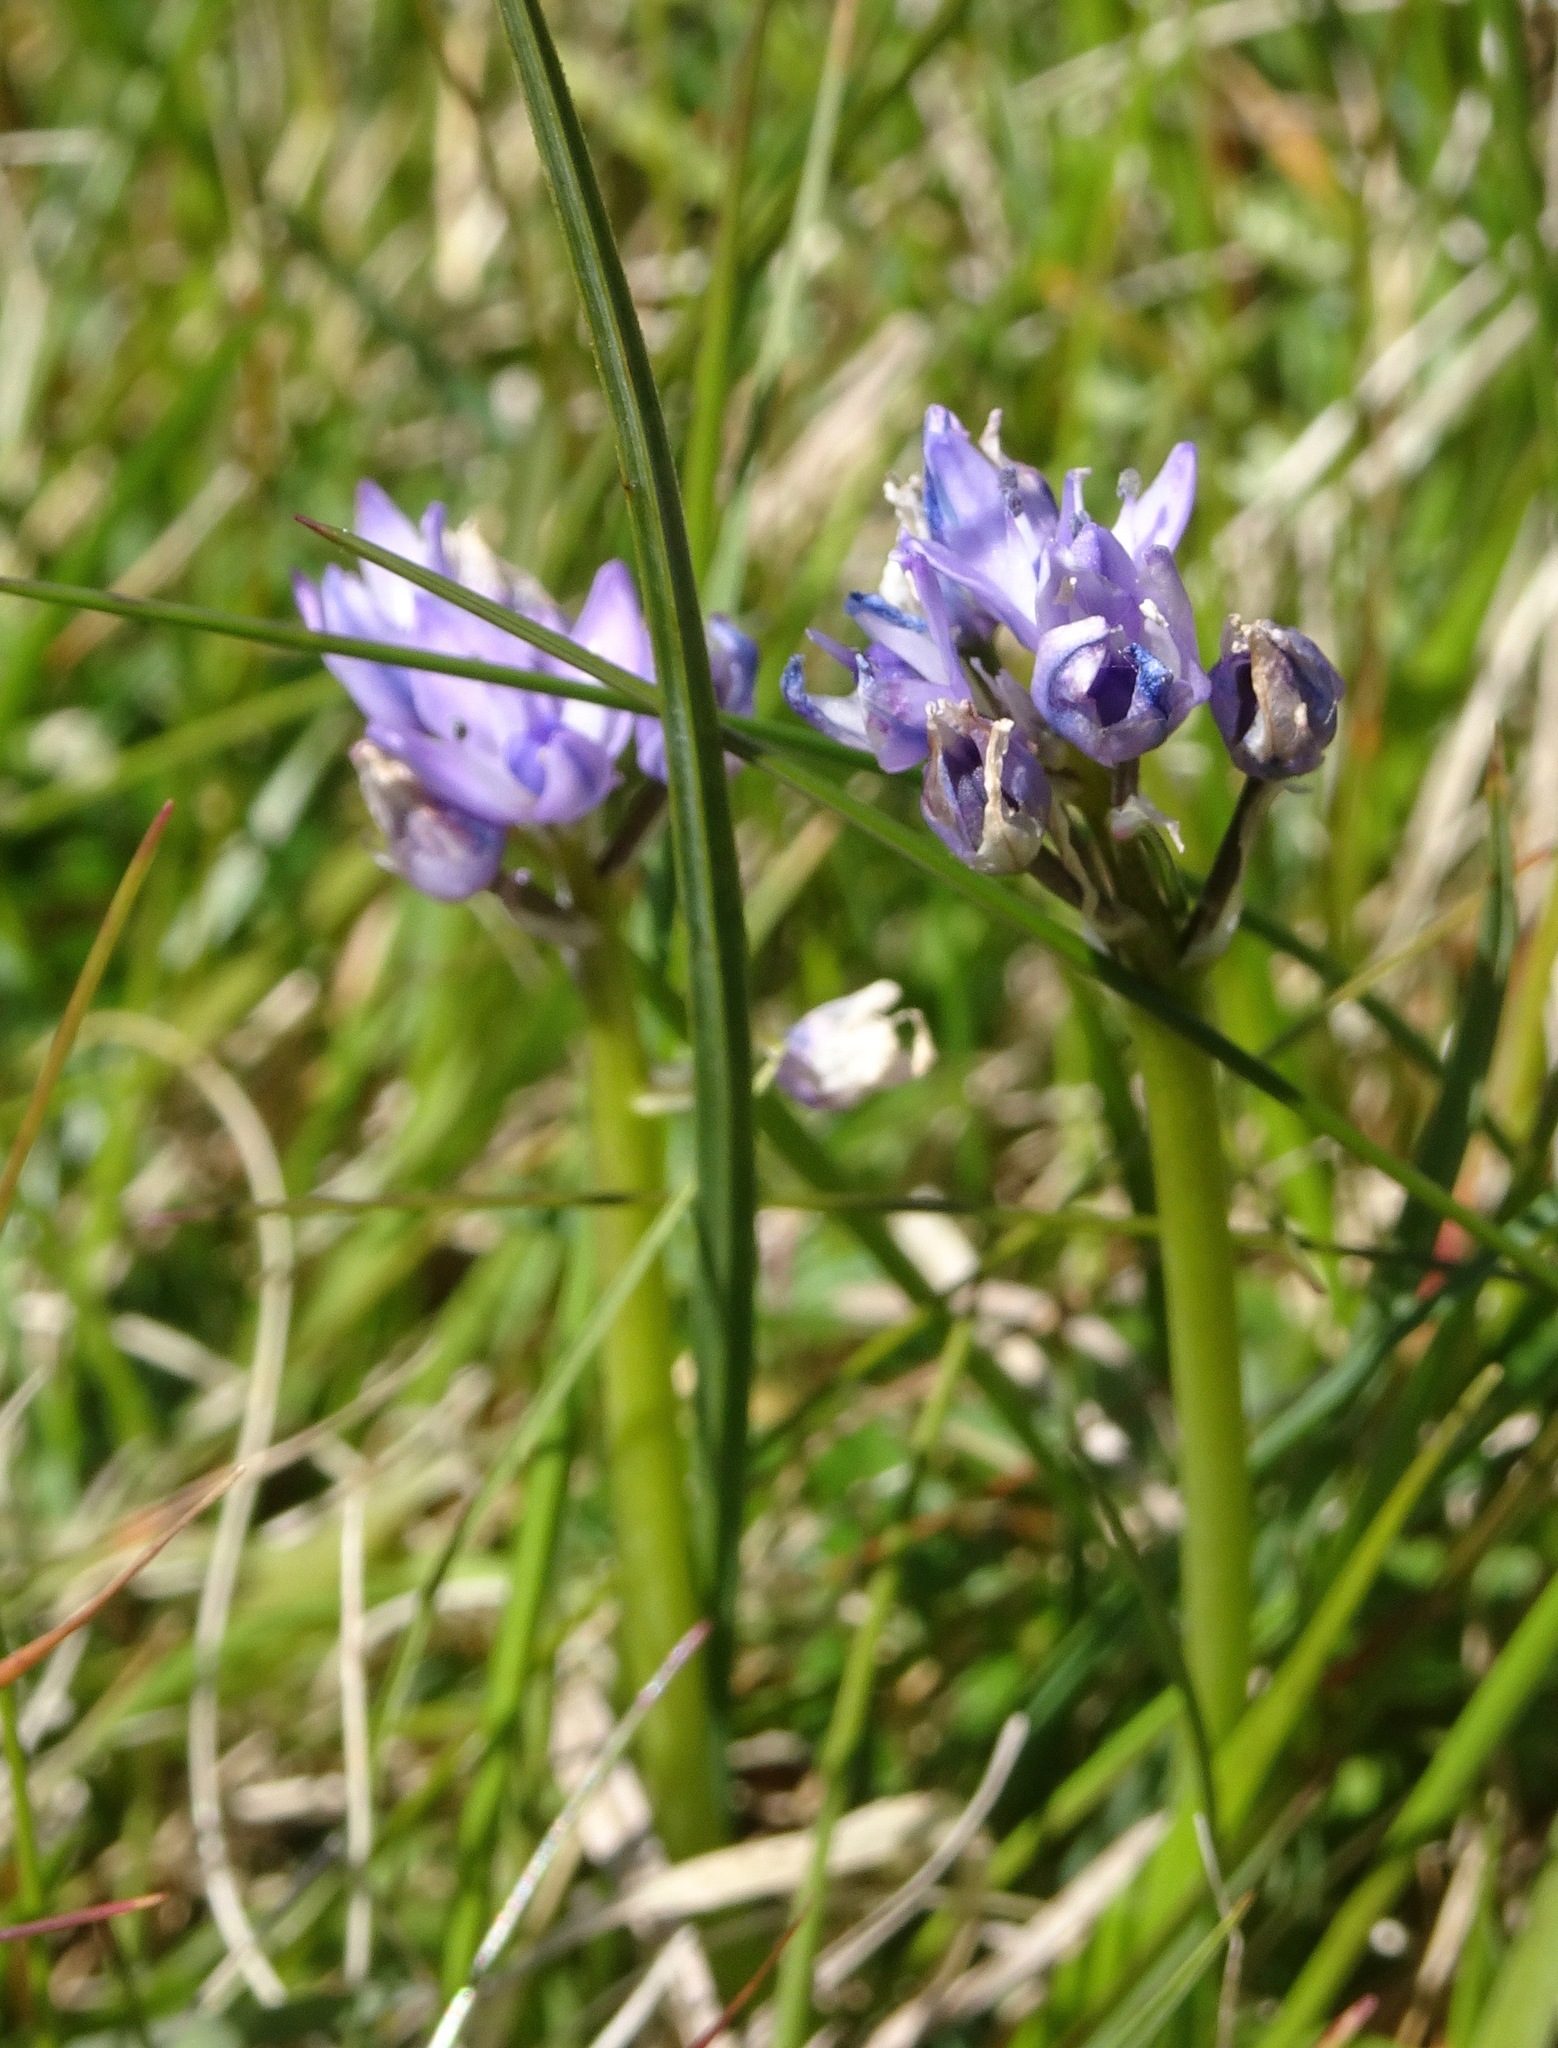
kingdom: Plantae
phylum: Tracheophyta
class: Liliopsida
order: Asparagales
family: Asparagaceae
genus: Scilla
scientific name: Scilla verna
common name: Spring squill
